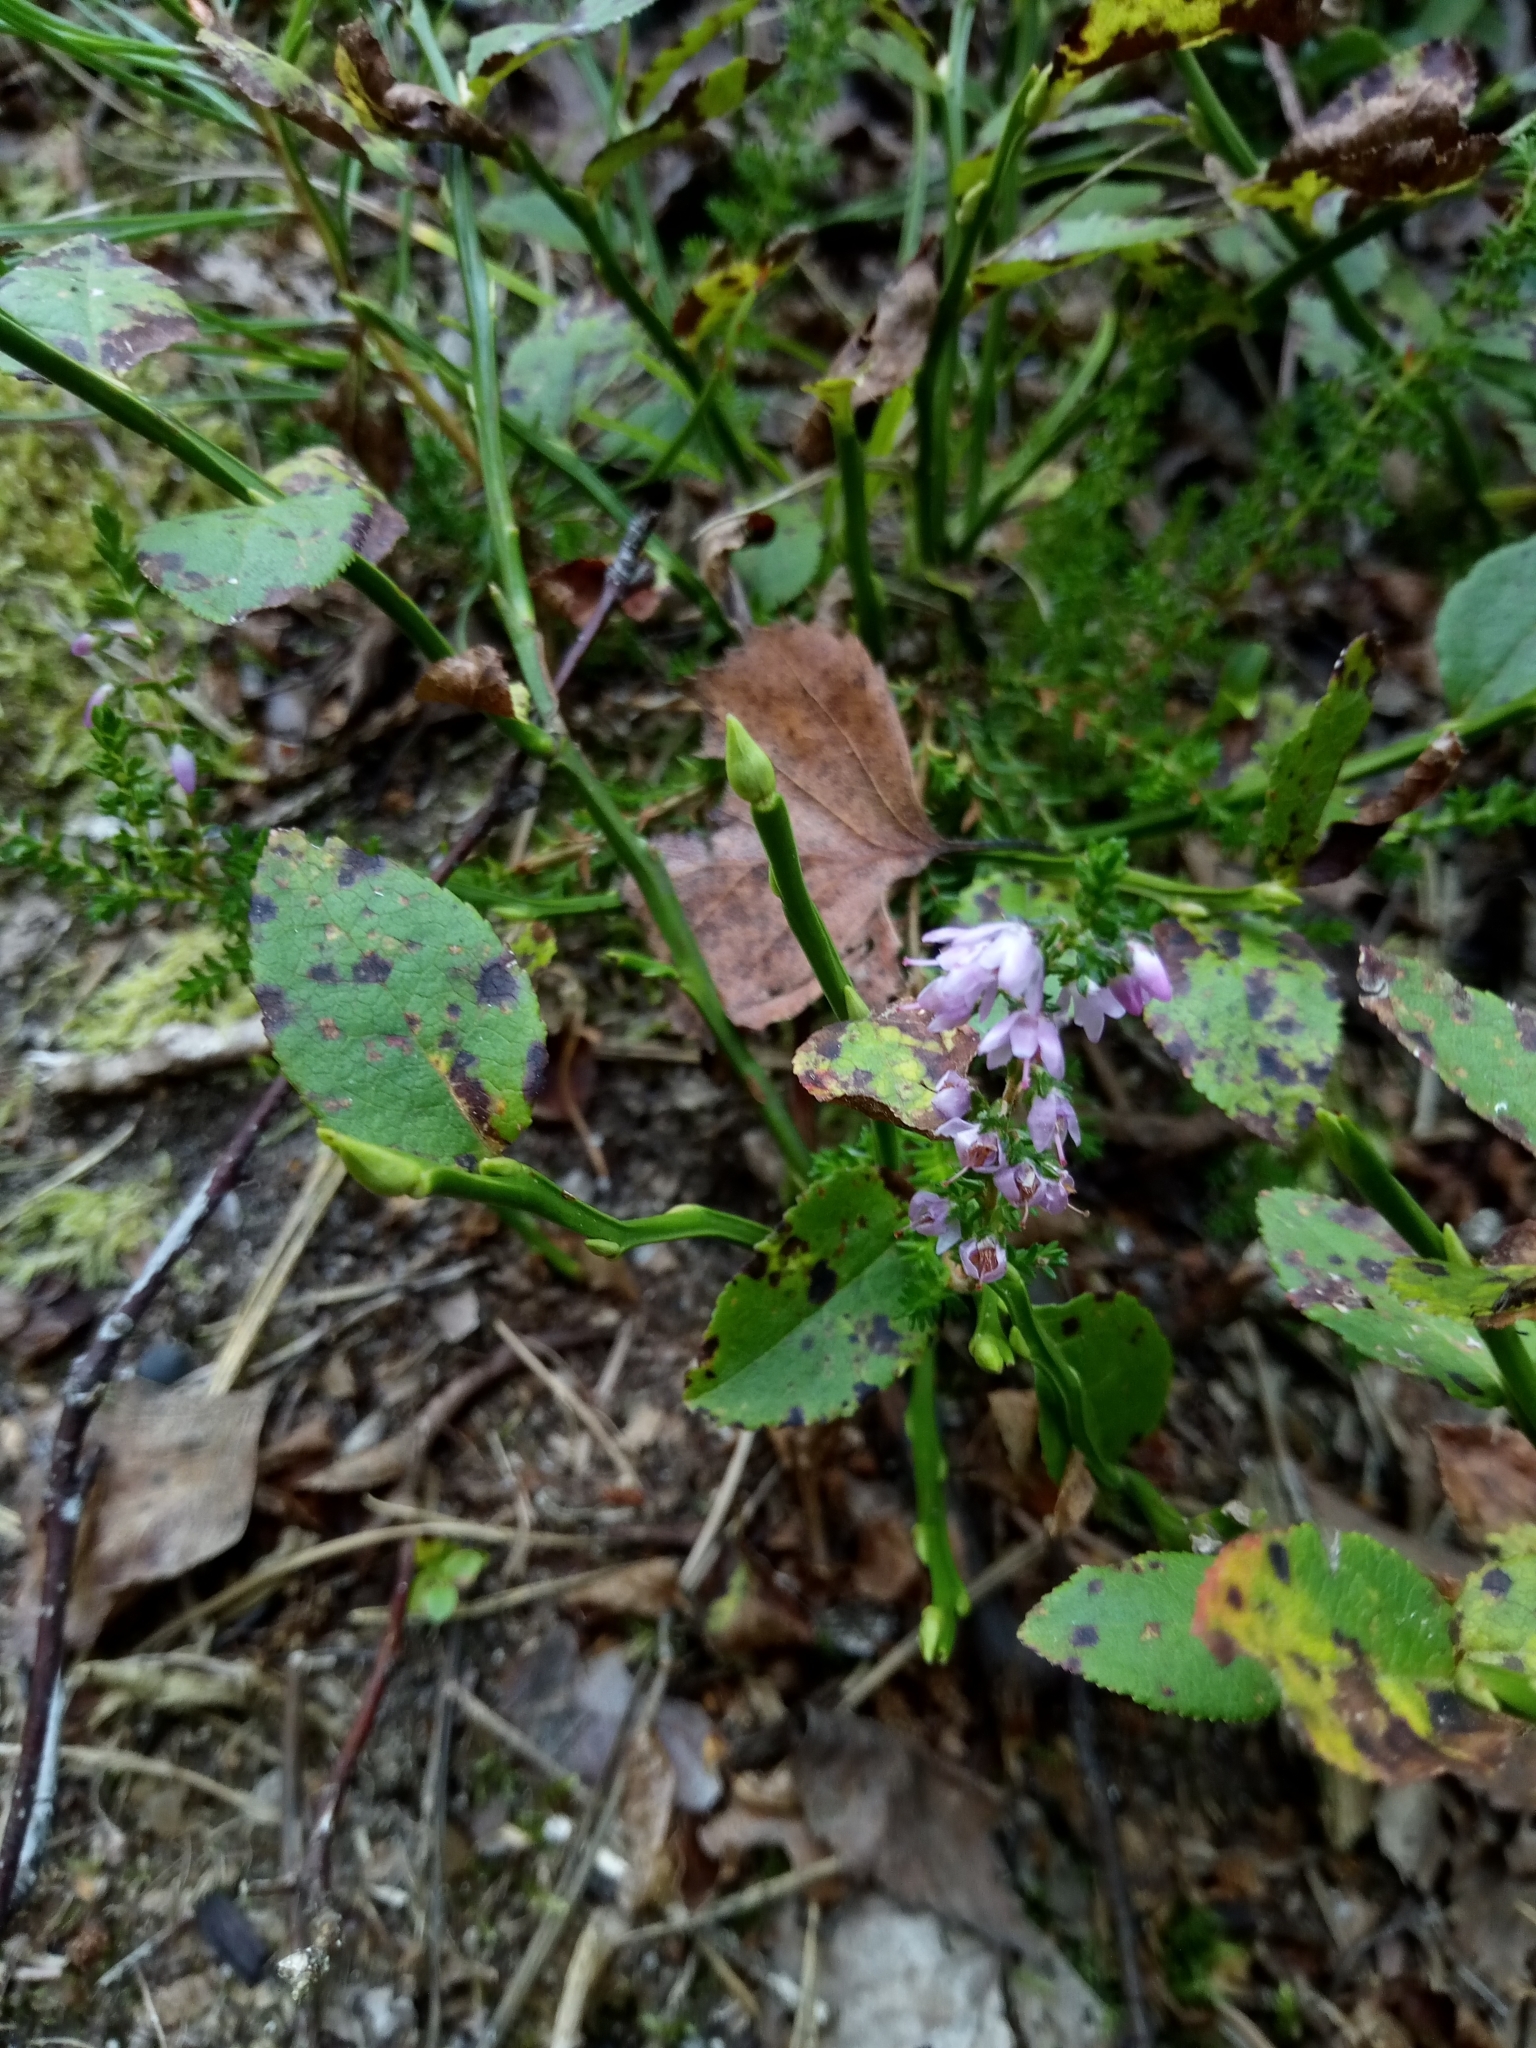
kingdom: Plantae
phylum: Tracheophyta
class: Magnoliopsida
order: Ericales
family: Ericaceae
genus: Calluna
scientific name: Calluna vulgaris
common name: Heather
